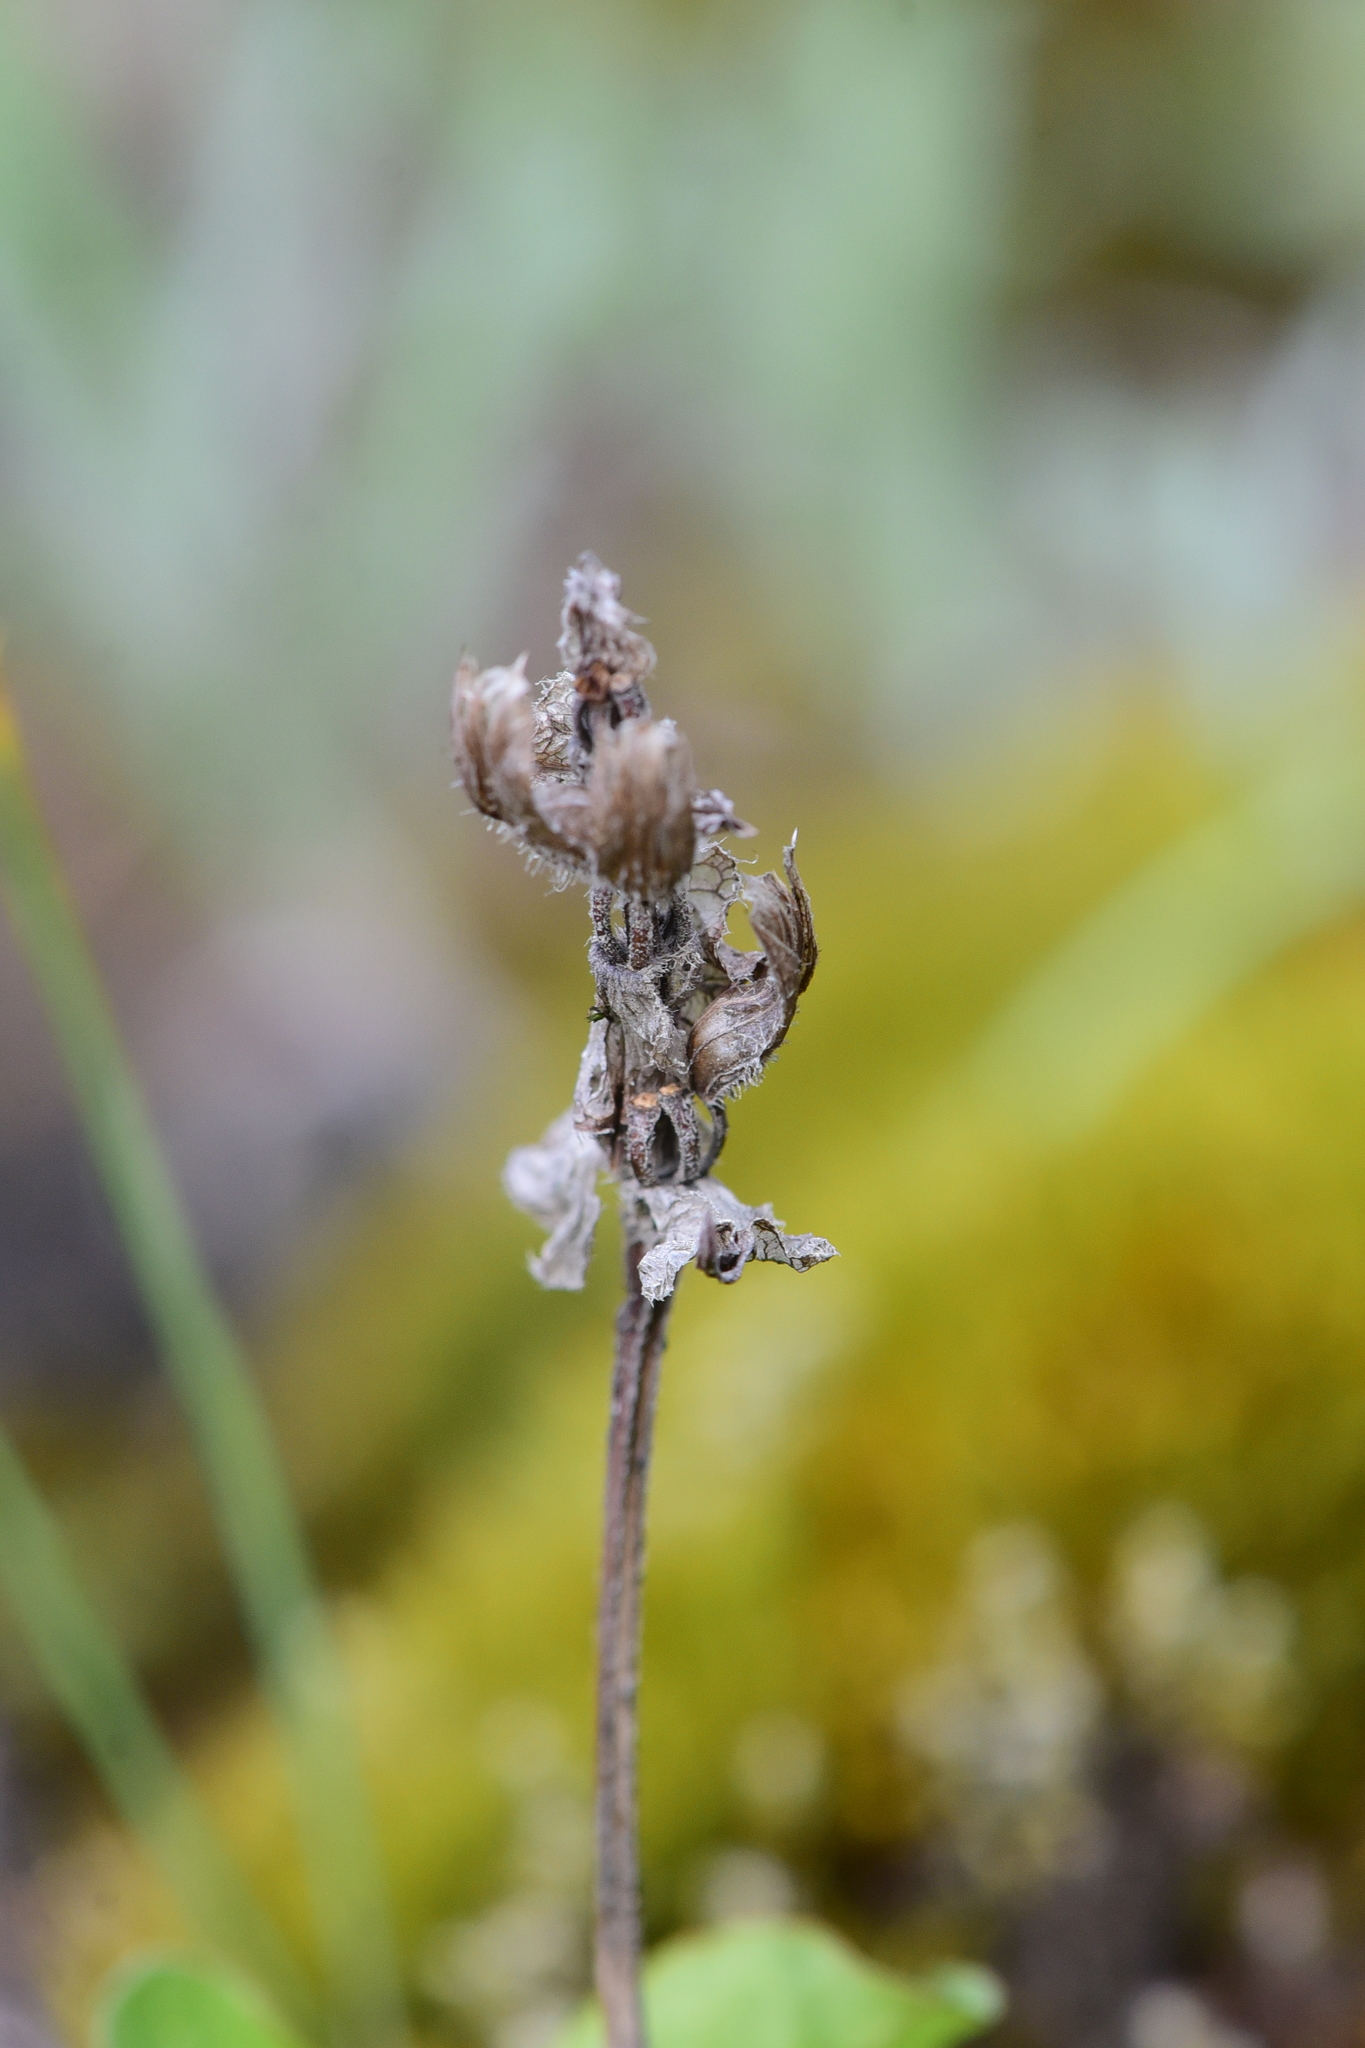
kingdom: Plantae
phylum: Tracheophyta
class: Magnoliopsida
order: Lamiales
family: Lamiaceae
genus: Prunella
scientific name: Prunella vulgaris
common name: Heal-all
